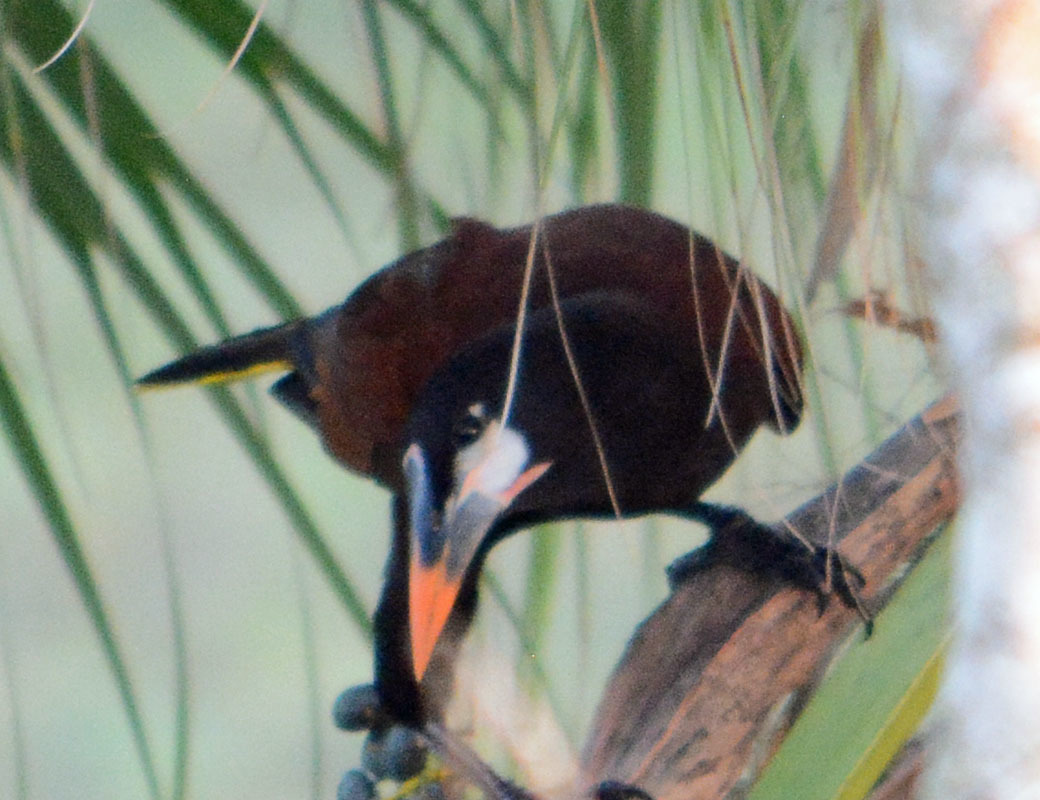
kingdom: Animalia
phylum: Chordata
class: Aves
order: Passeriformes
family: Icteridae
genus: Psarocolius
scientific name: Psarocolius montezuma
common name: Montezuma oropendola
